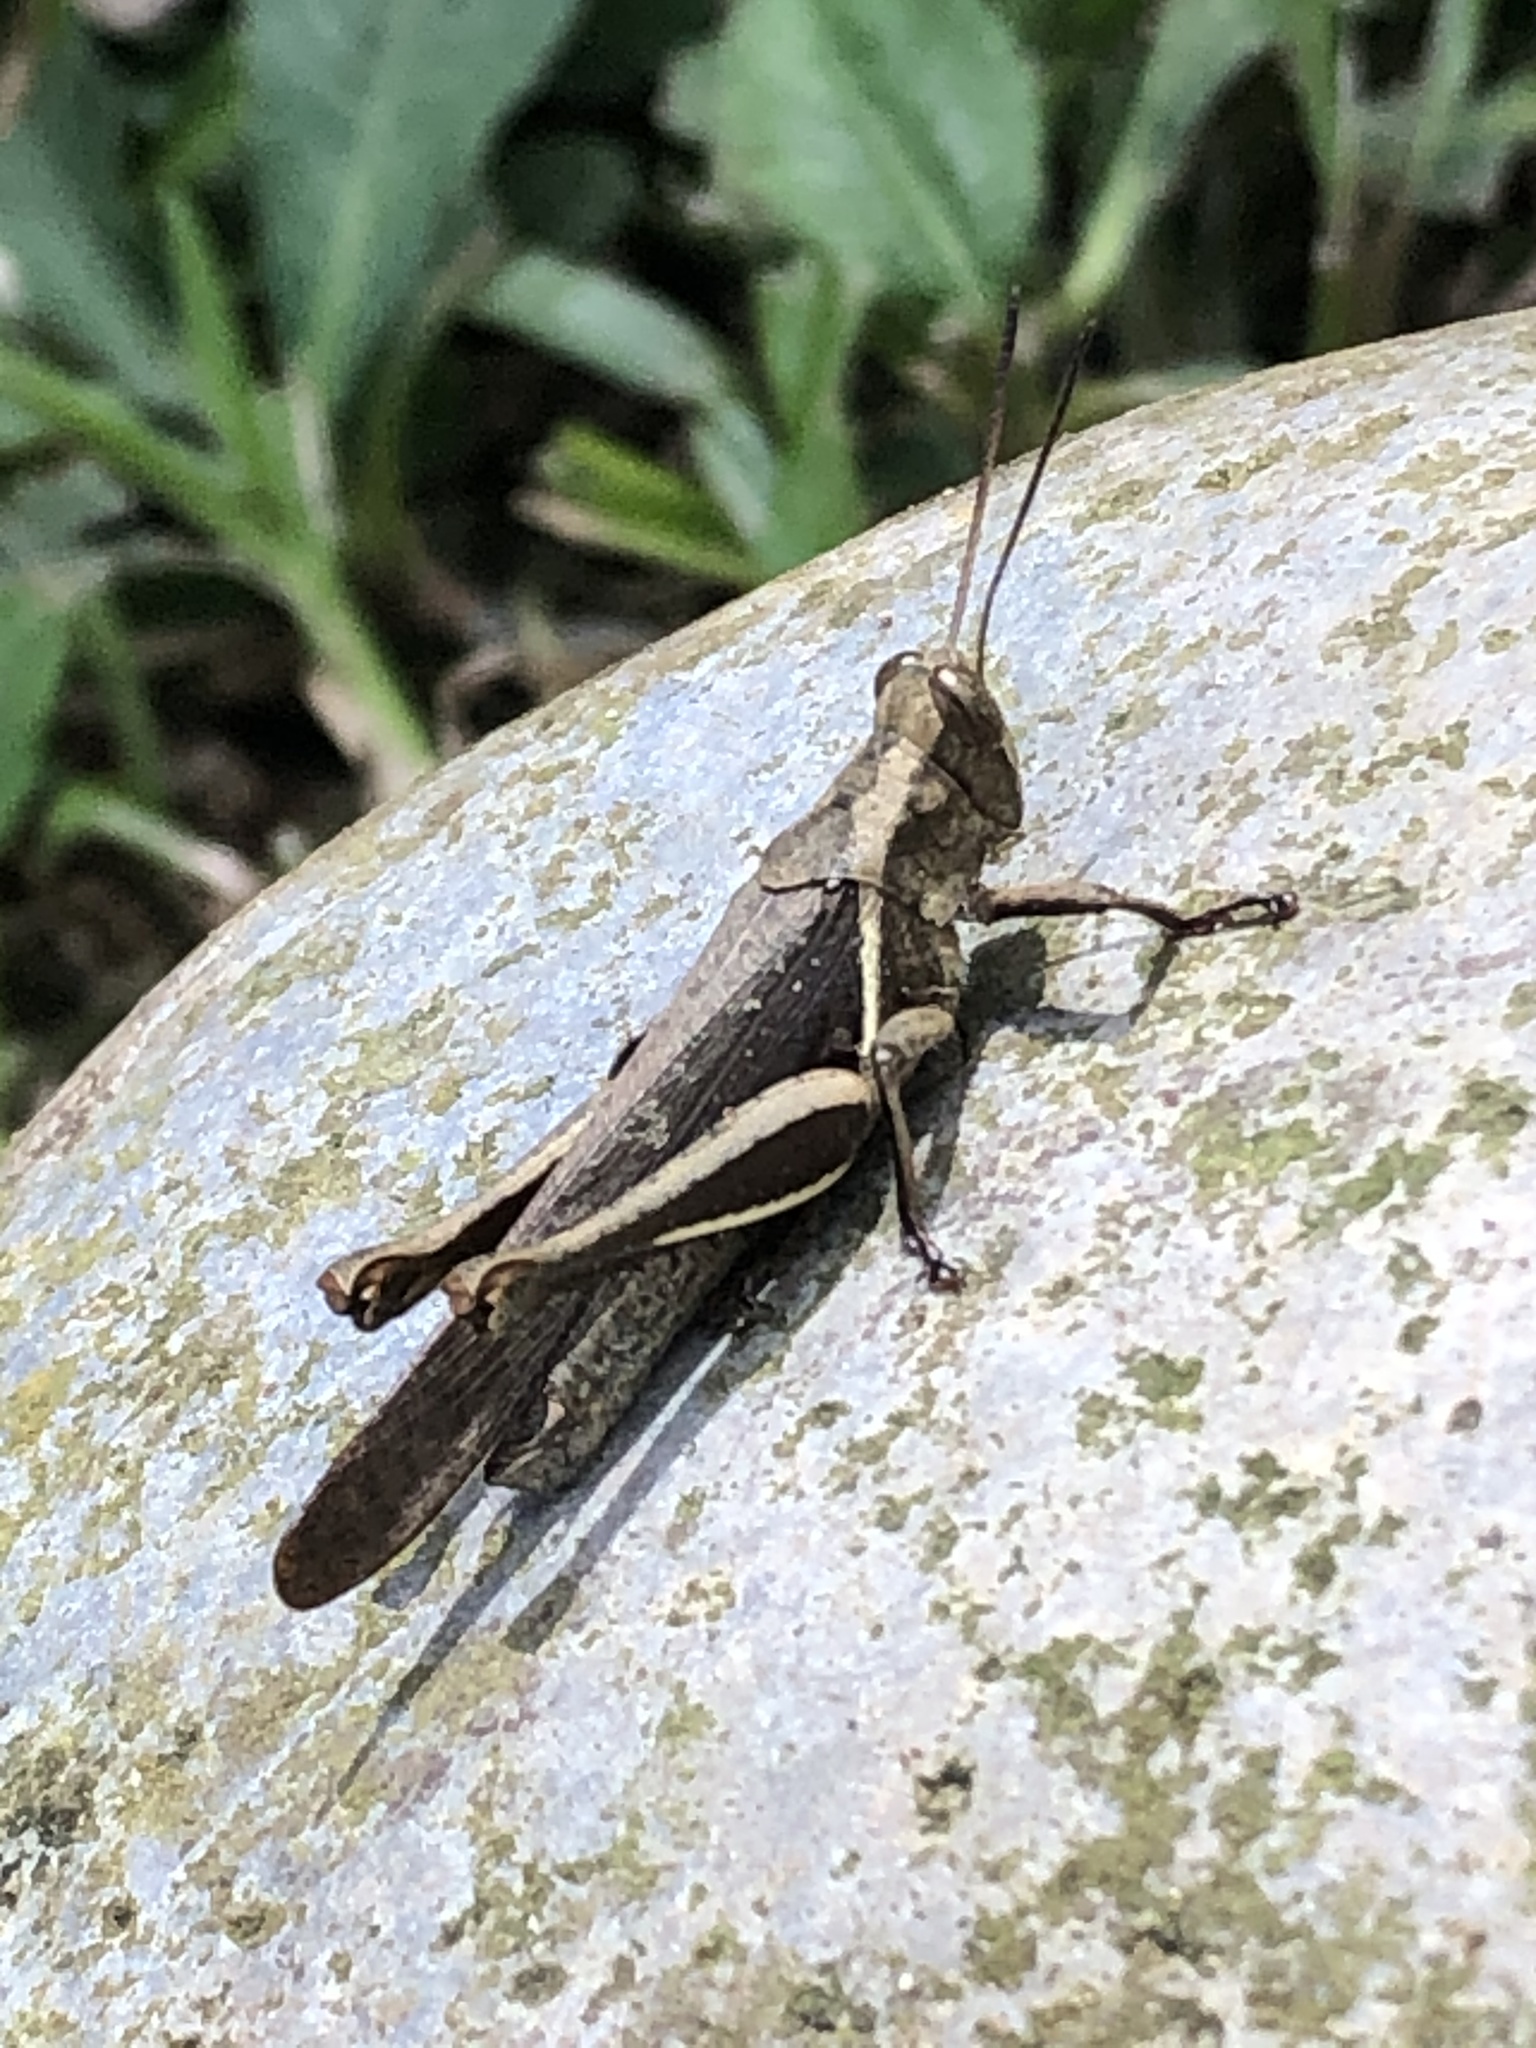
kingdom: Animalia
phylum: Arthropoda
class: Insecta
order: Orthoptera
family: Acrididae
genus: Abracris
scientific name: Abracris flavolineata
